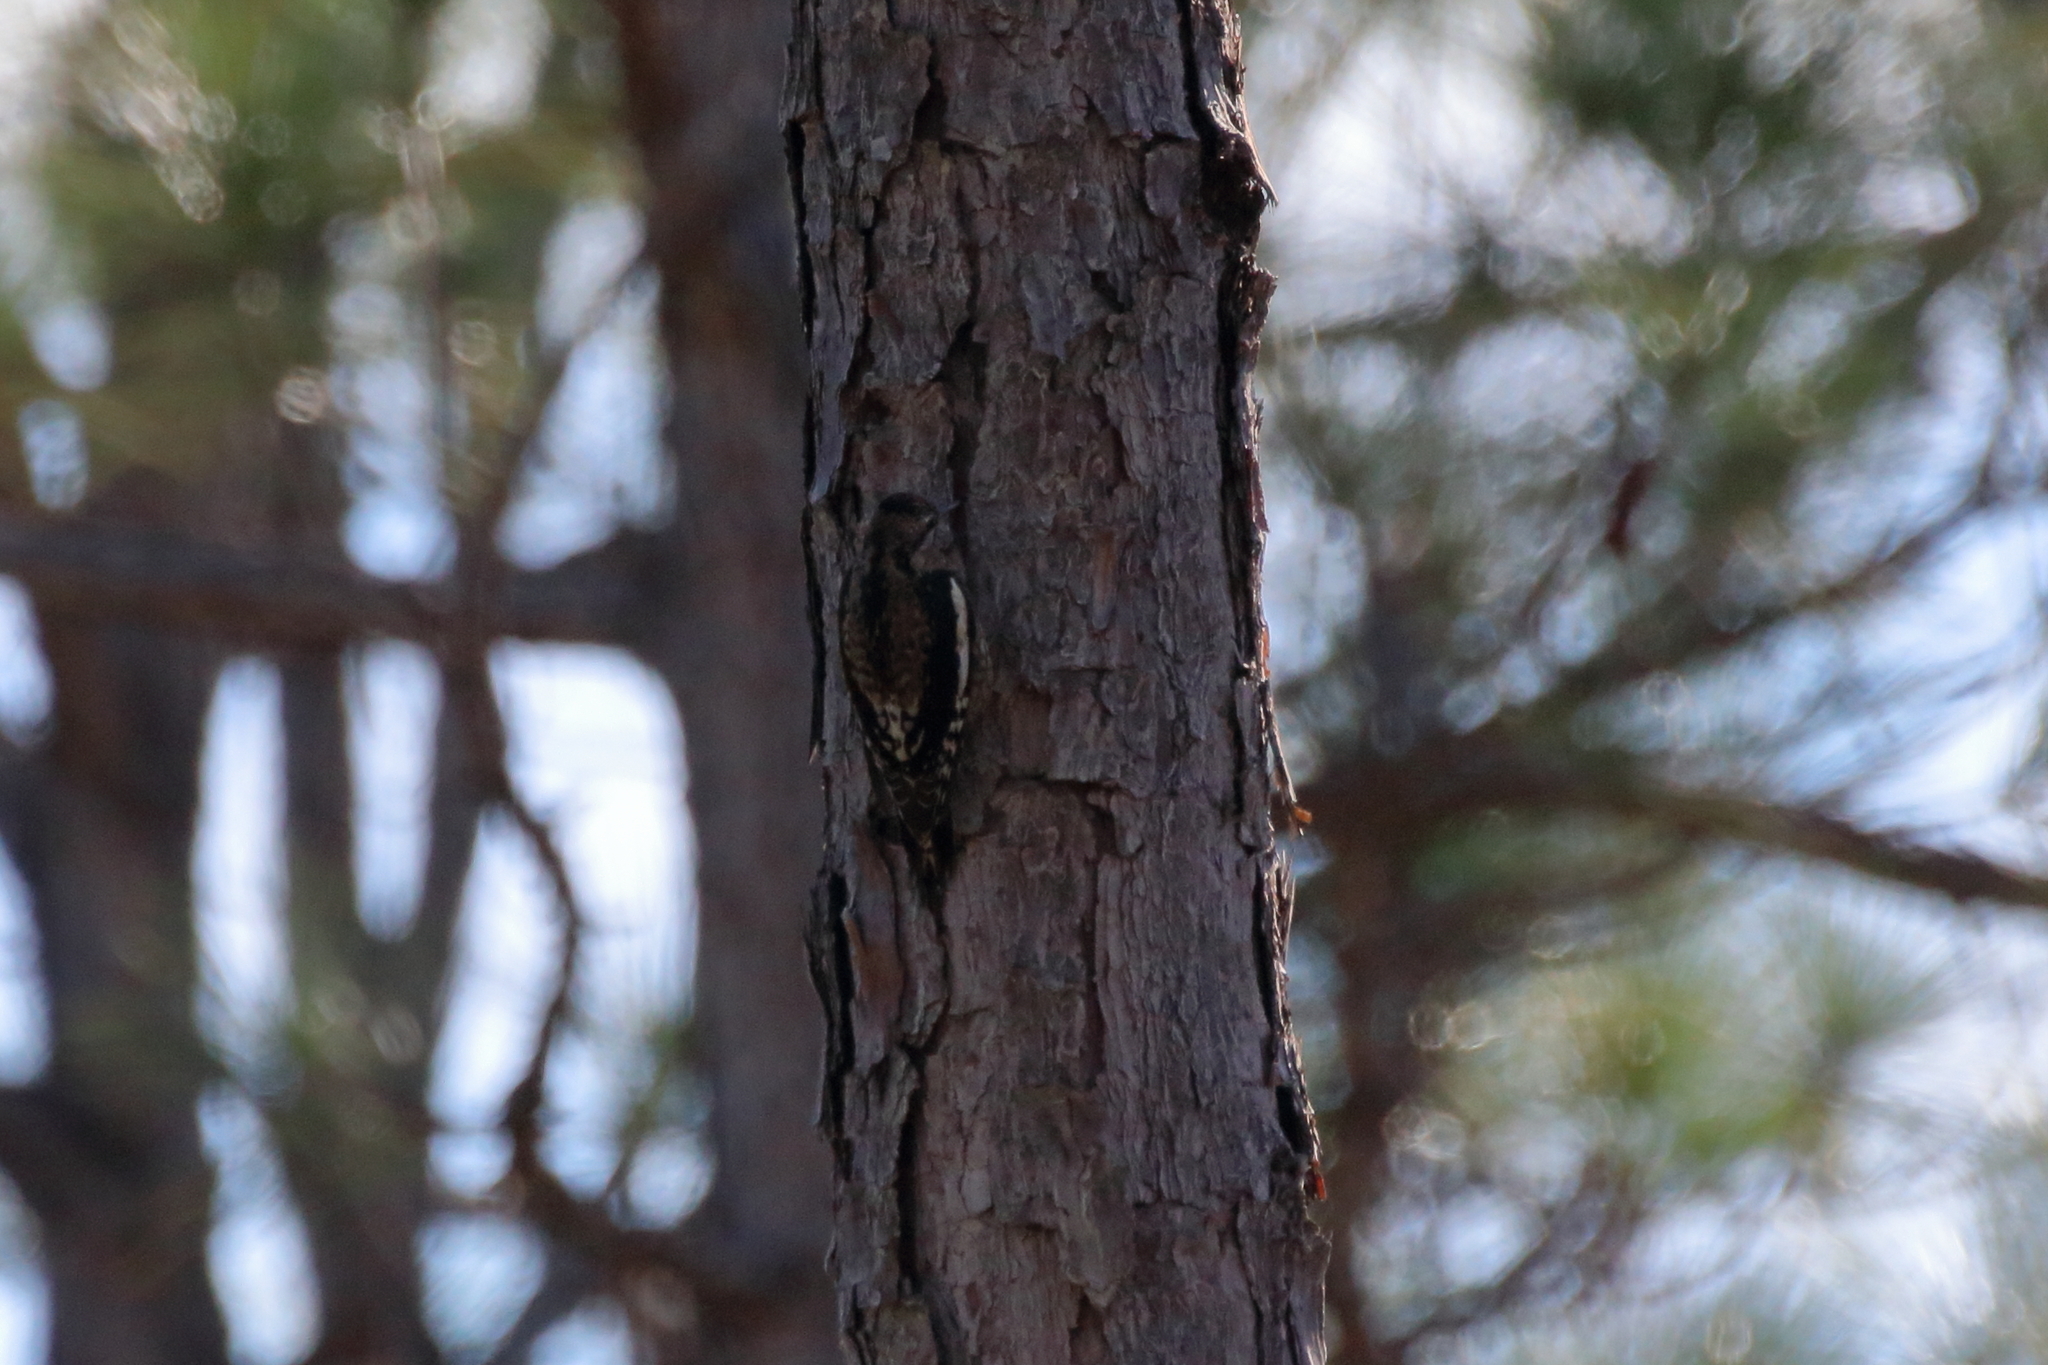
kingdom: Animalia
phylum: Chordata
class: Aves
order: Piciformes
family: Picidae
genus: Sphyrapicus
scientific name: Sphyrapicus varius
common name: Yellow-bellied sapsucker
